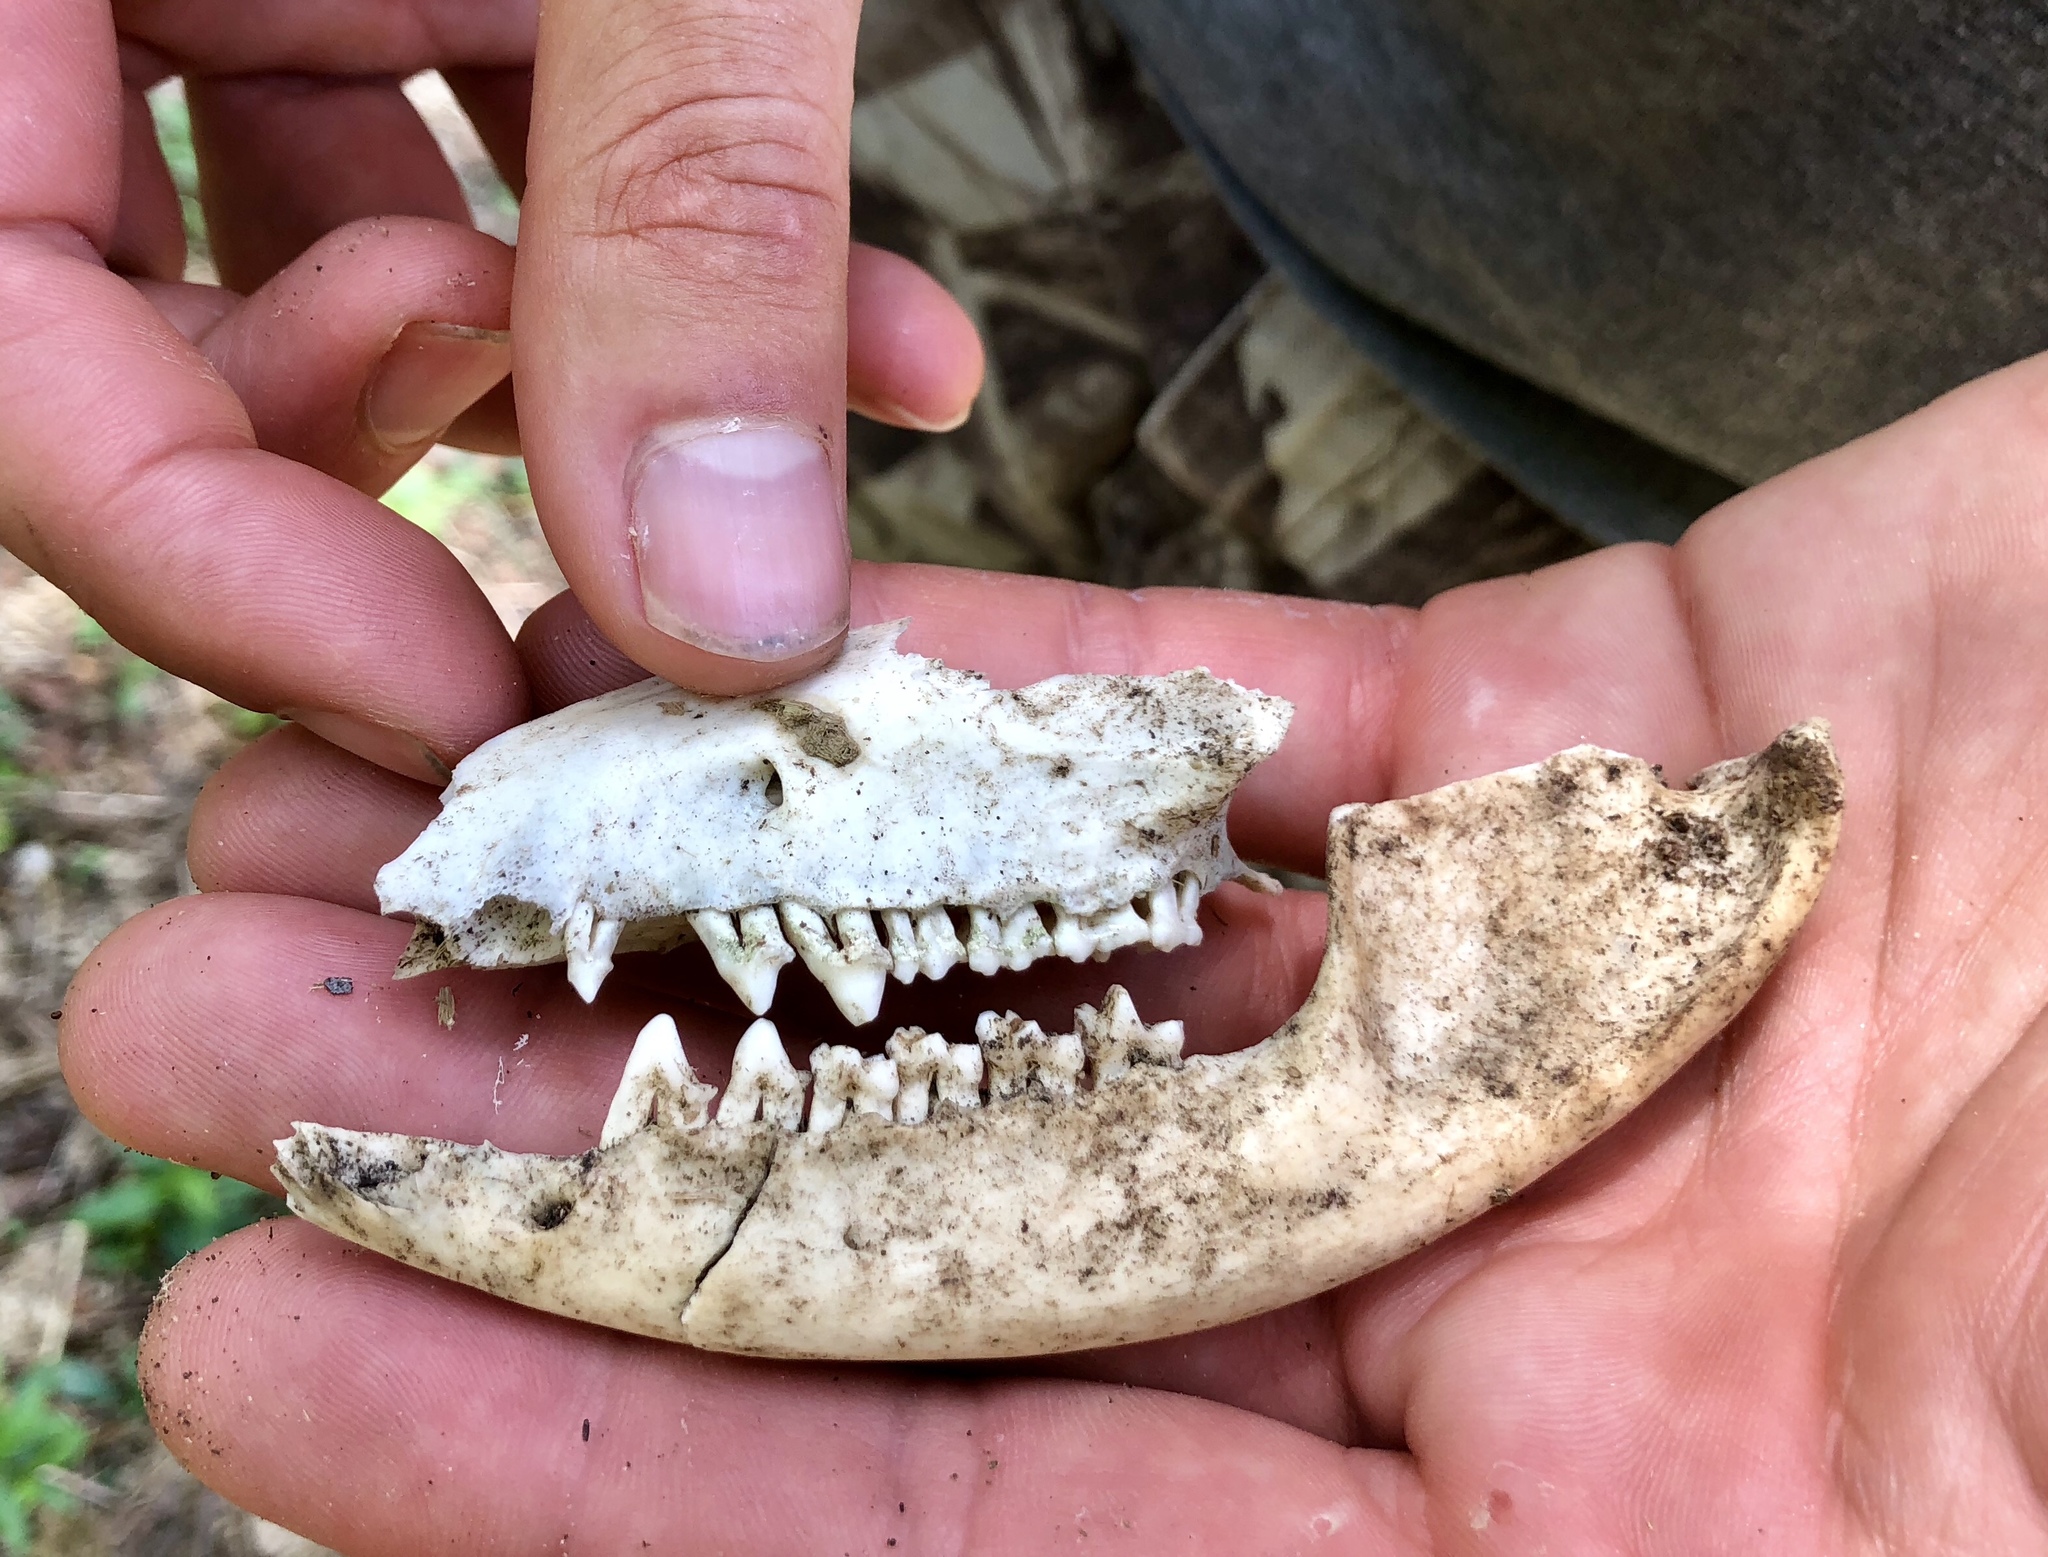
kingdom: Animalia
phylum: Chordata
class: Mammalia
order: Didelphimorphia
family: Didelphidae
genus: Didelphis
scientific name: Didelphis virginiana
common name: Virginia opossum
